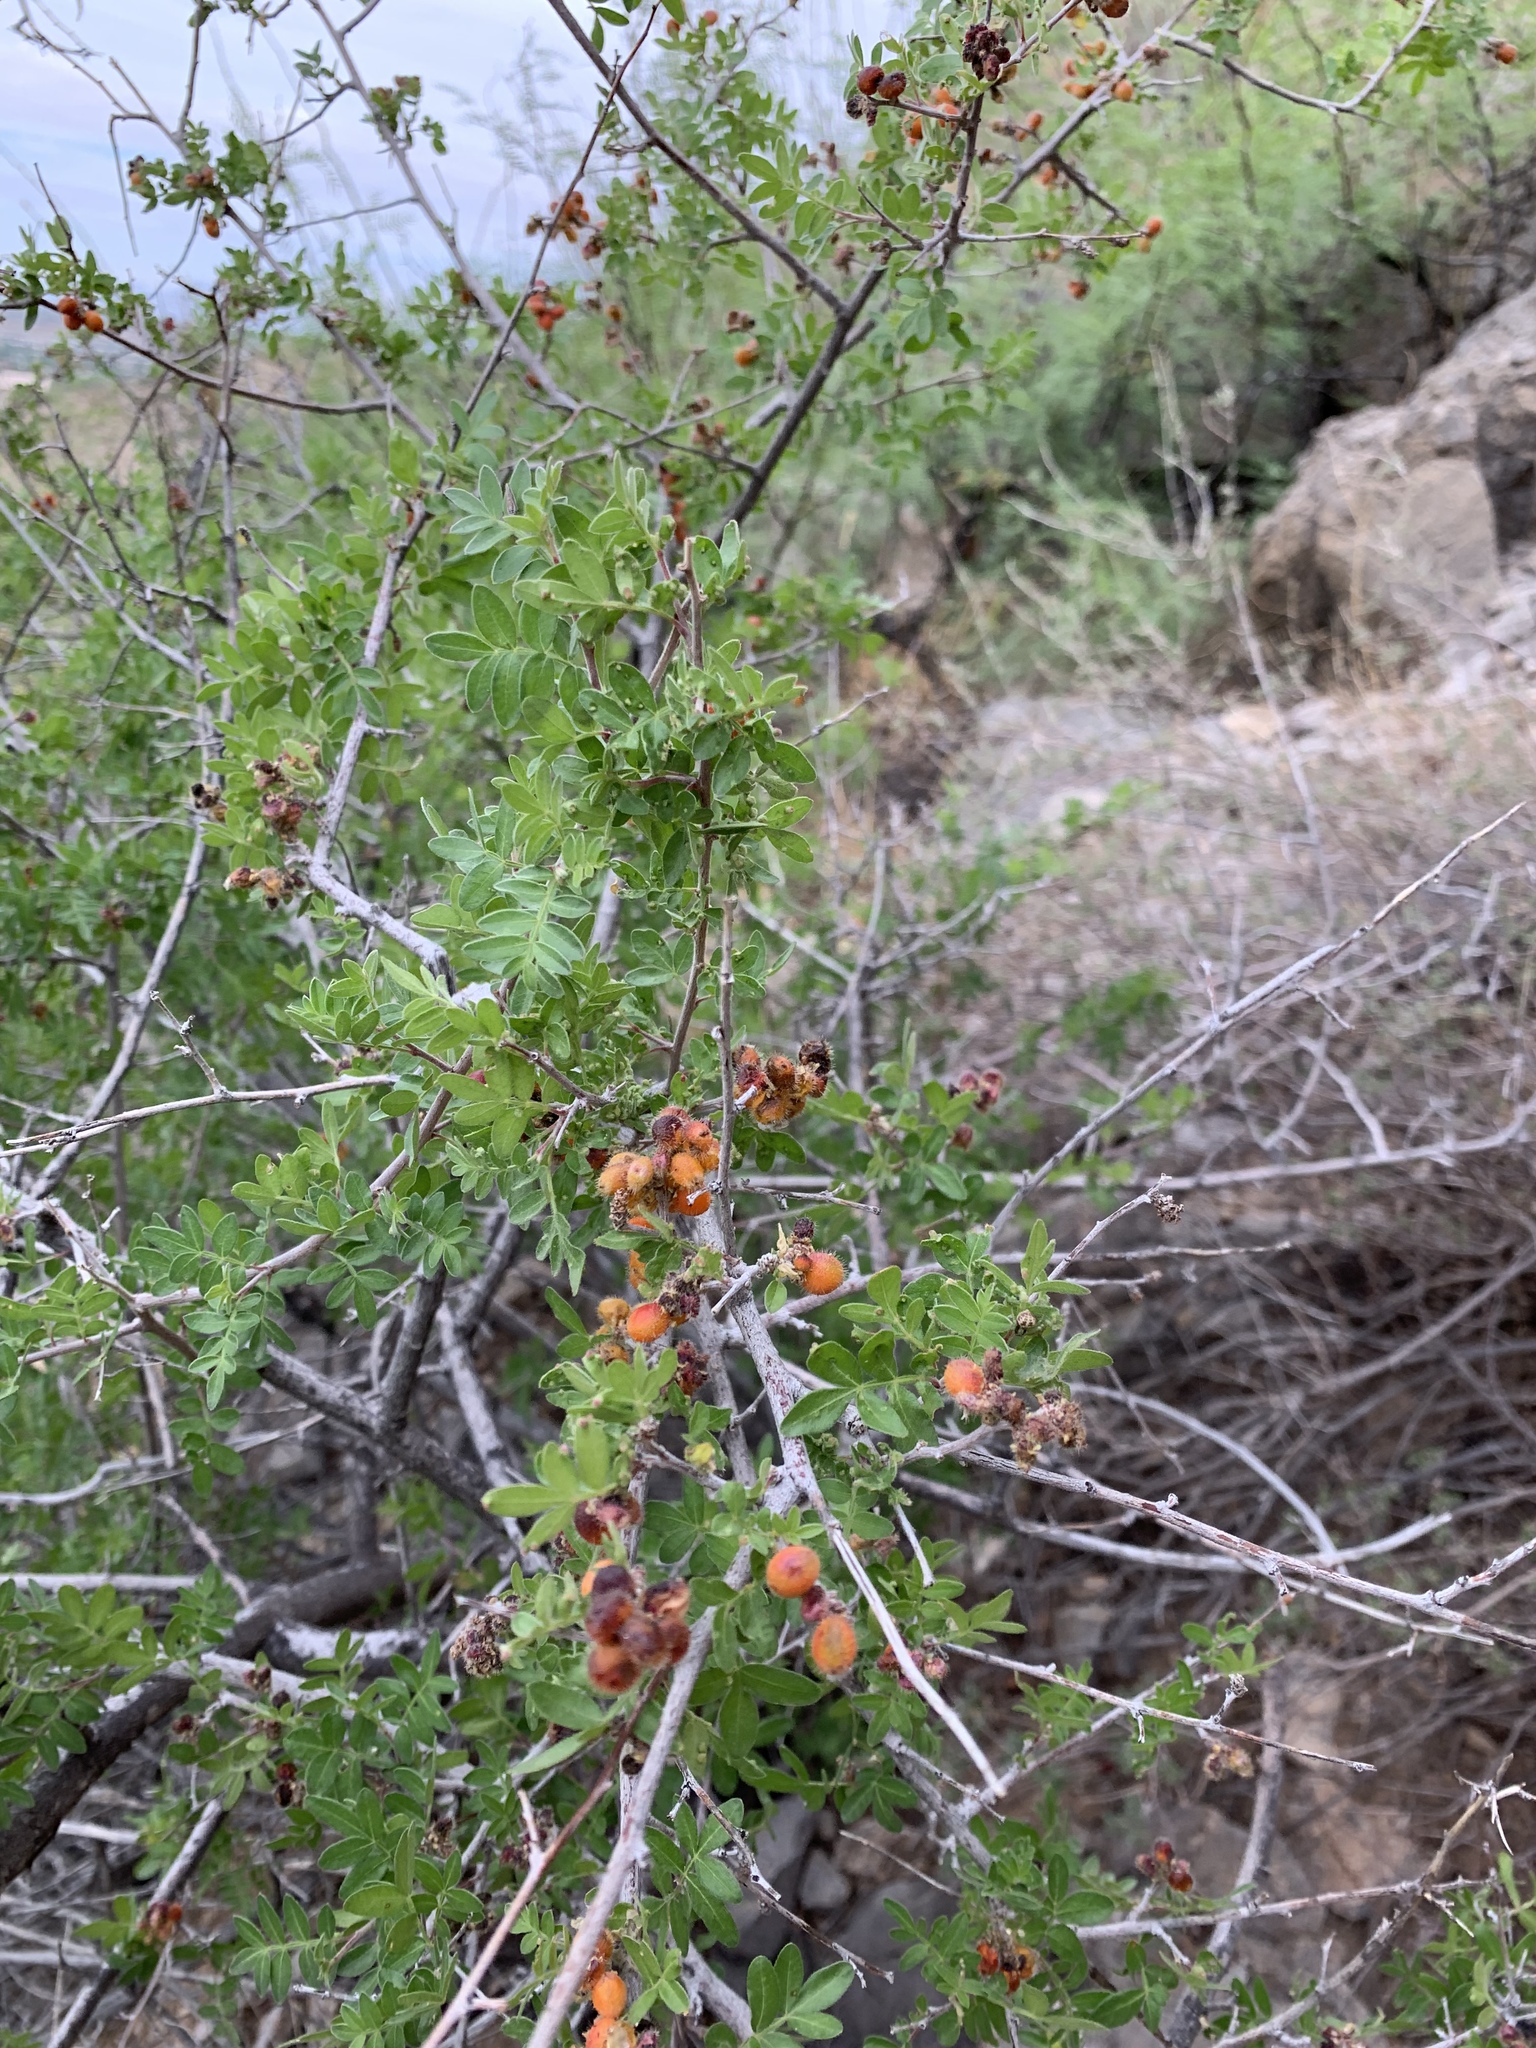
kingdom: Plantae
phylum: Tracheophyta
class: Magnoliopsida
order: Sapindales
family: Anacardiaceae
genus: Rhus
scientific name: Rhus microphylla
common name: Desert sumac
